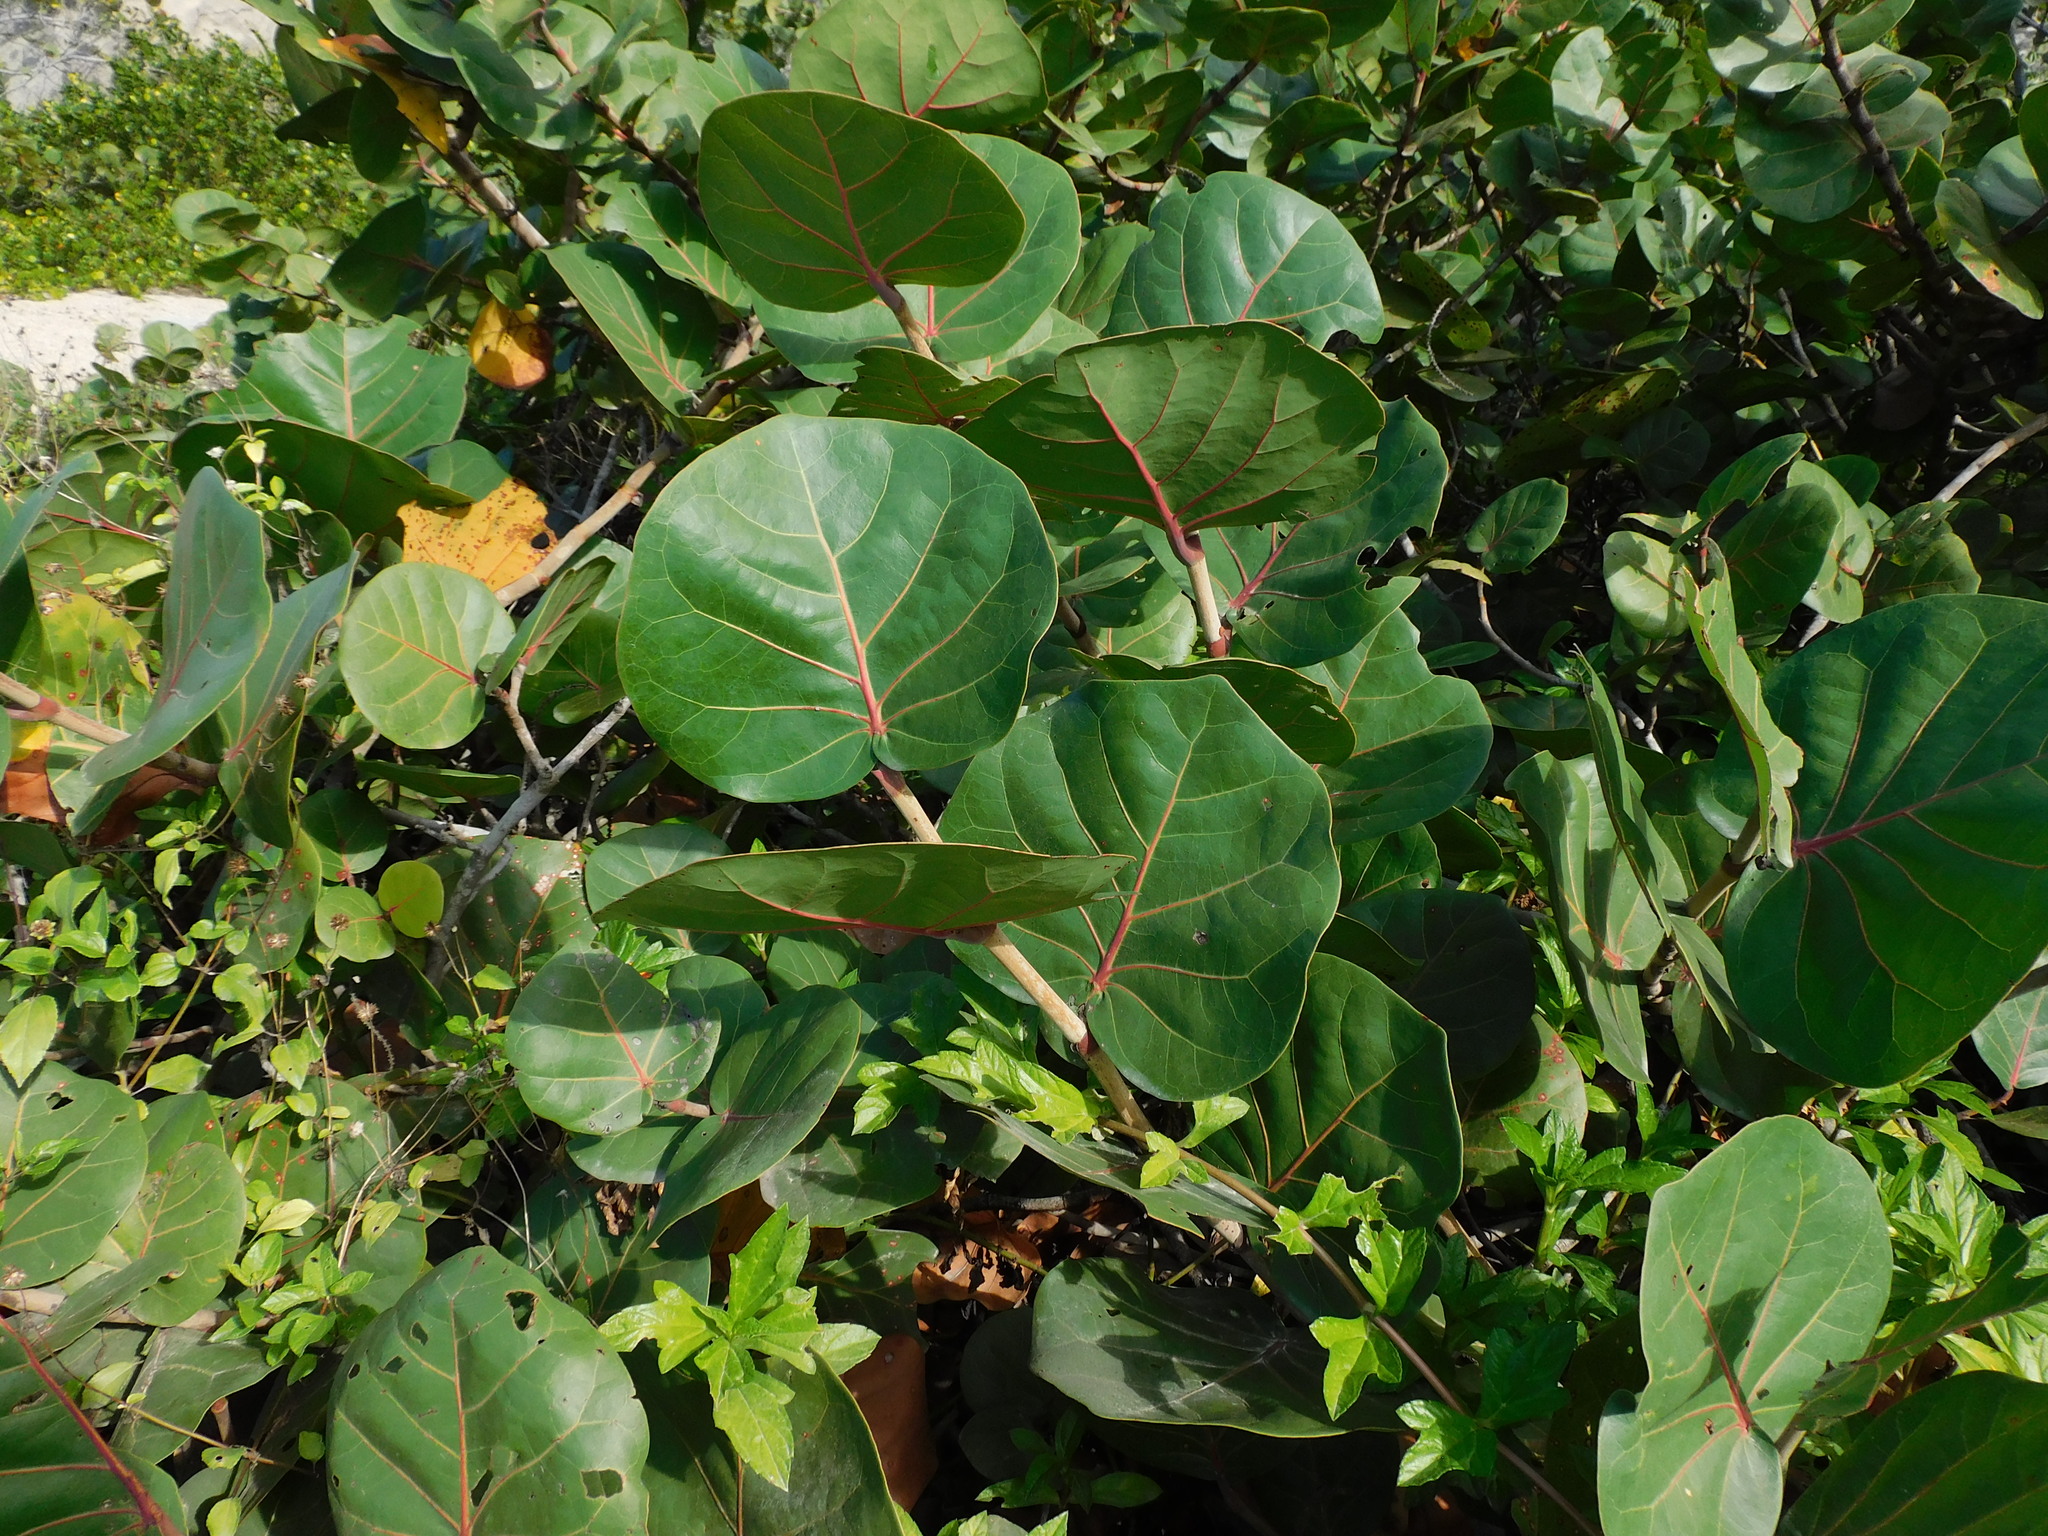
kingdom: Plantae
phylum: Tracheophyta
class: Magnoliopsida
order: Caryophyllales
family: Polygonaceae
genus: Coccoloba
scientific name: Coccoloba uvifera
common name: Seagrape
